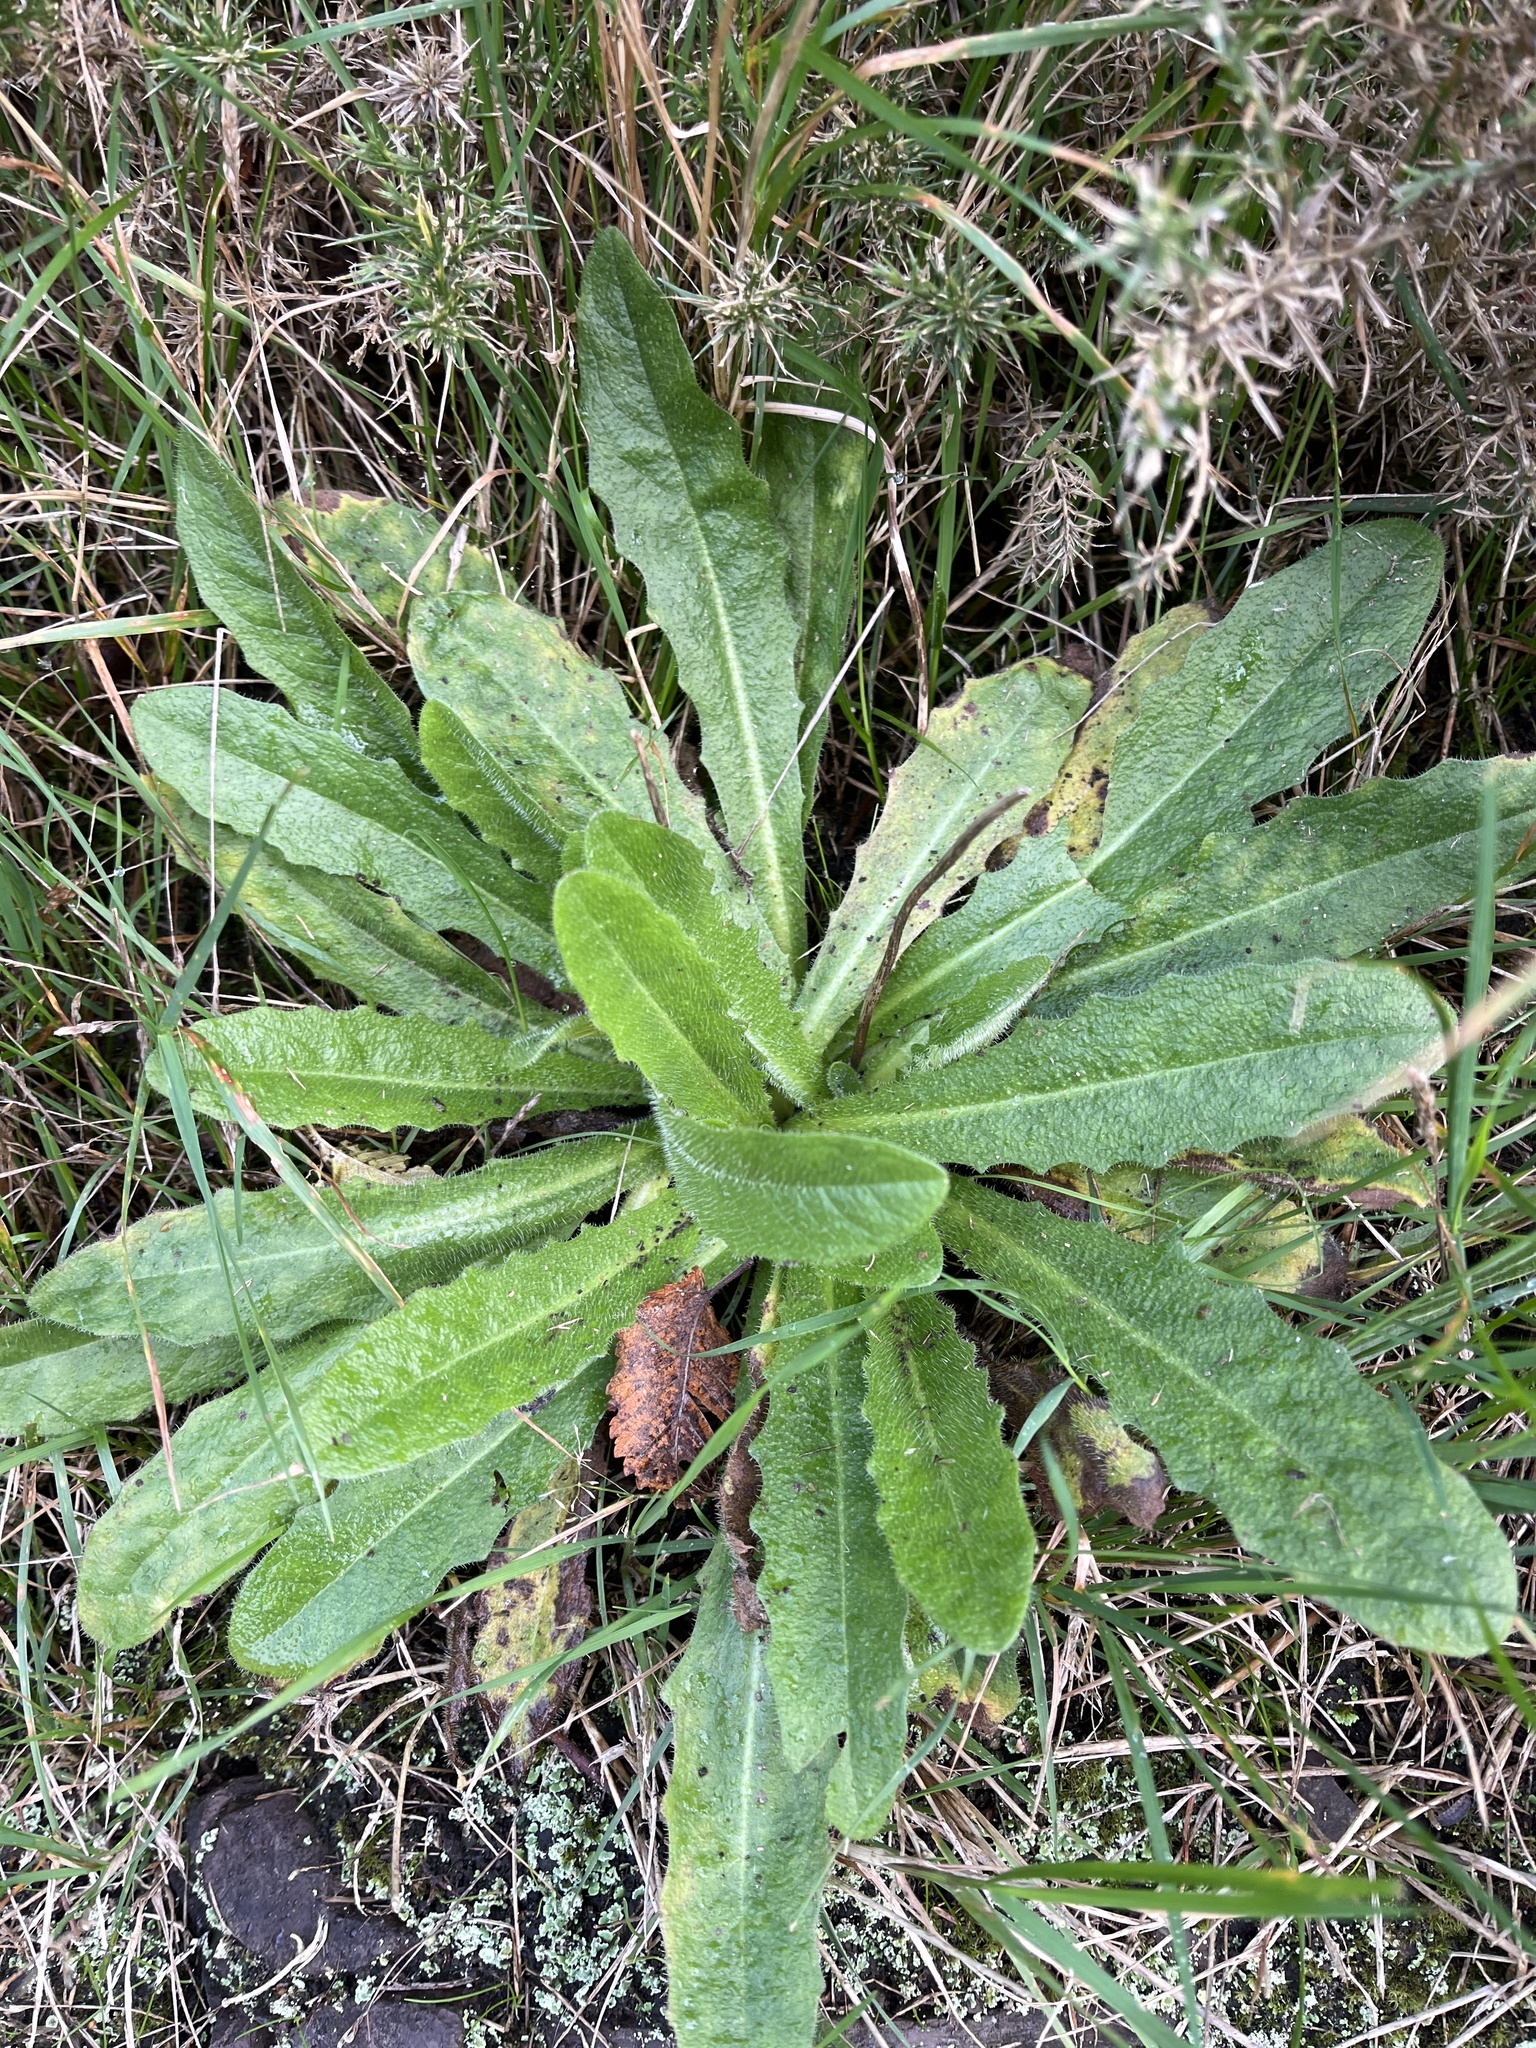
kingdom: Plantae
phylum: Tracheophyta
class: Magnoliopsida
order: Asterales
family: Asteraceae
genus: Hypochaeris
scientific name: Hypochaeris radicata
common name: Flatweed
